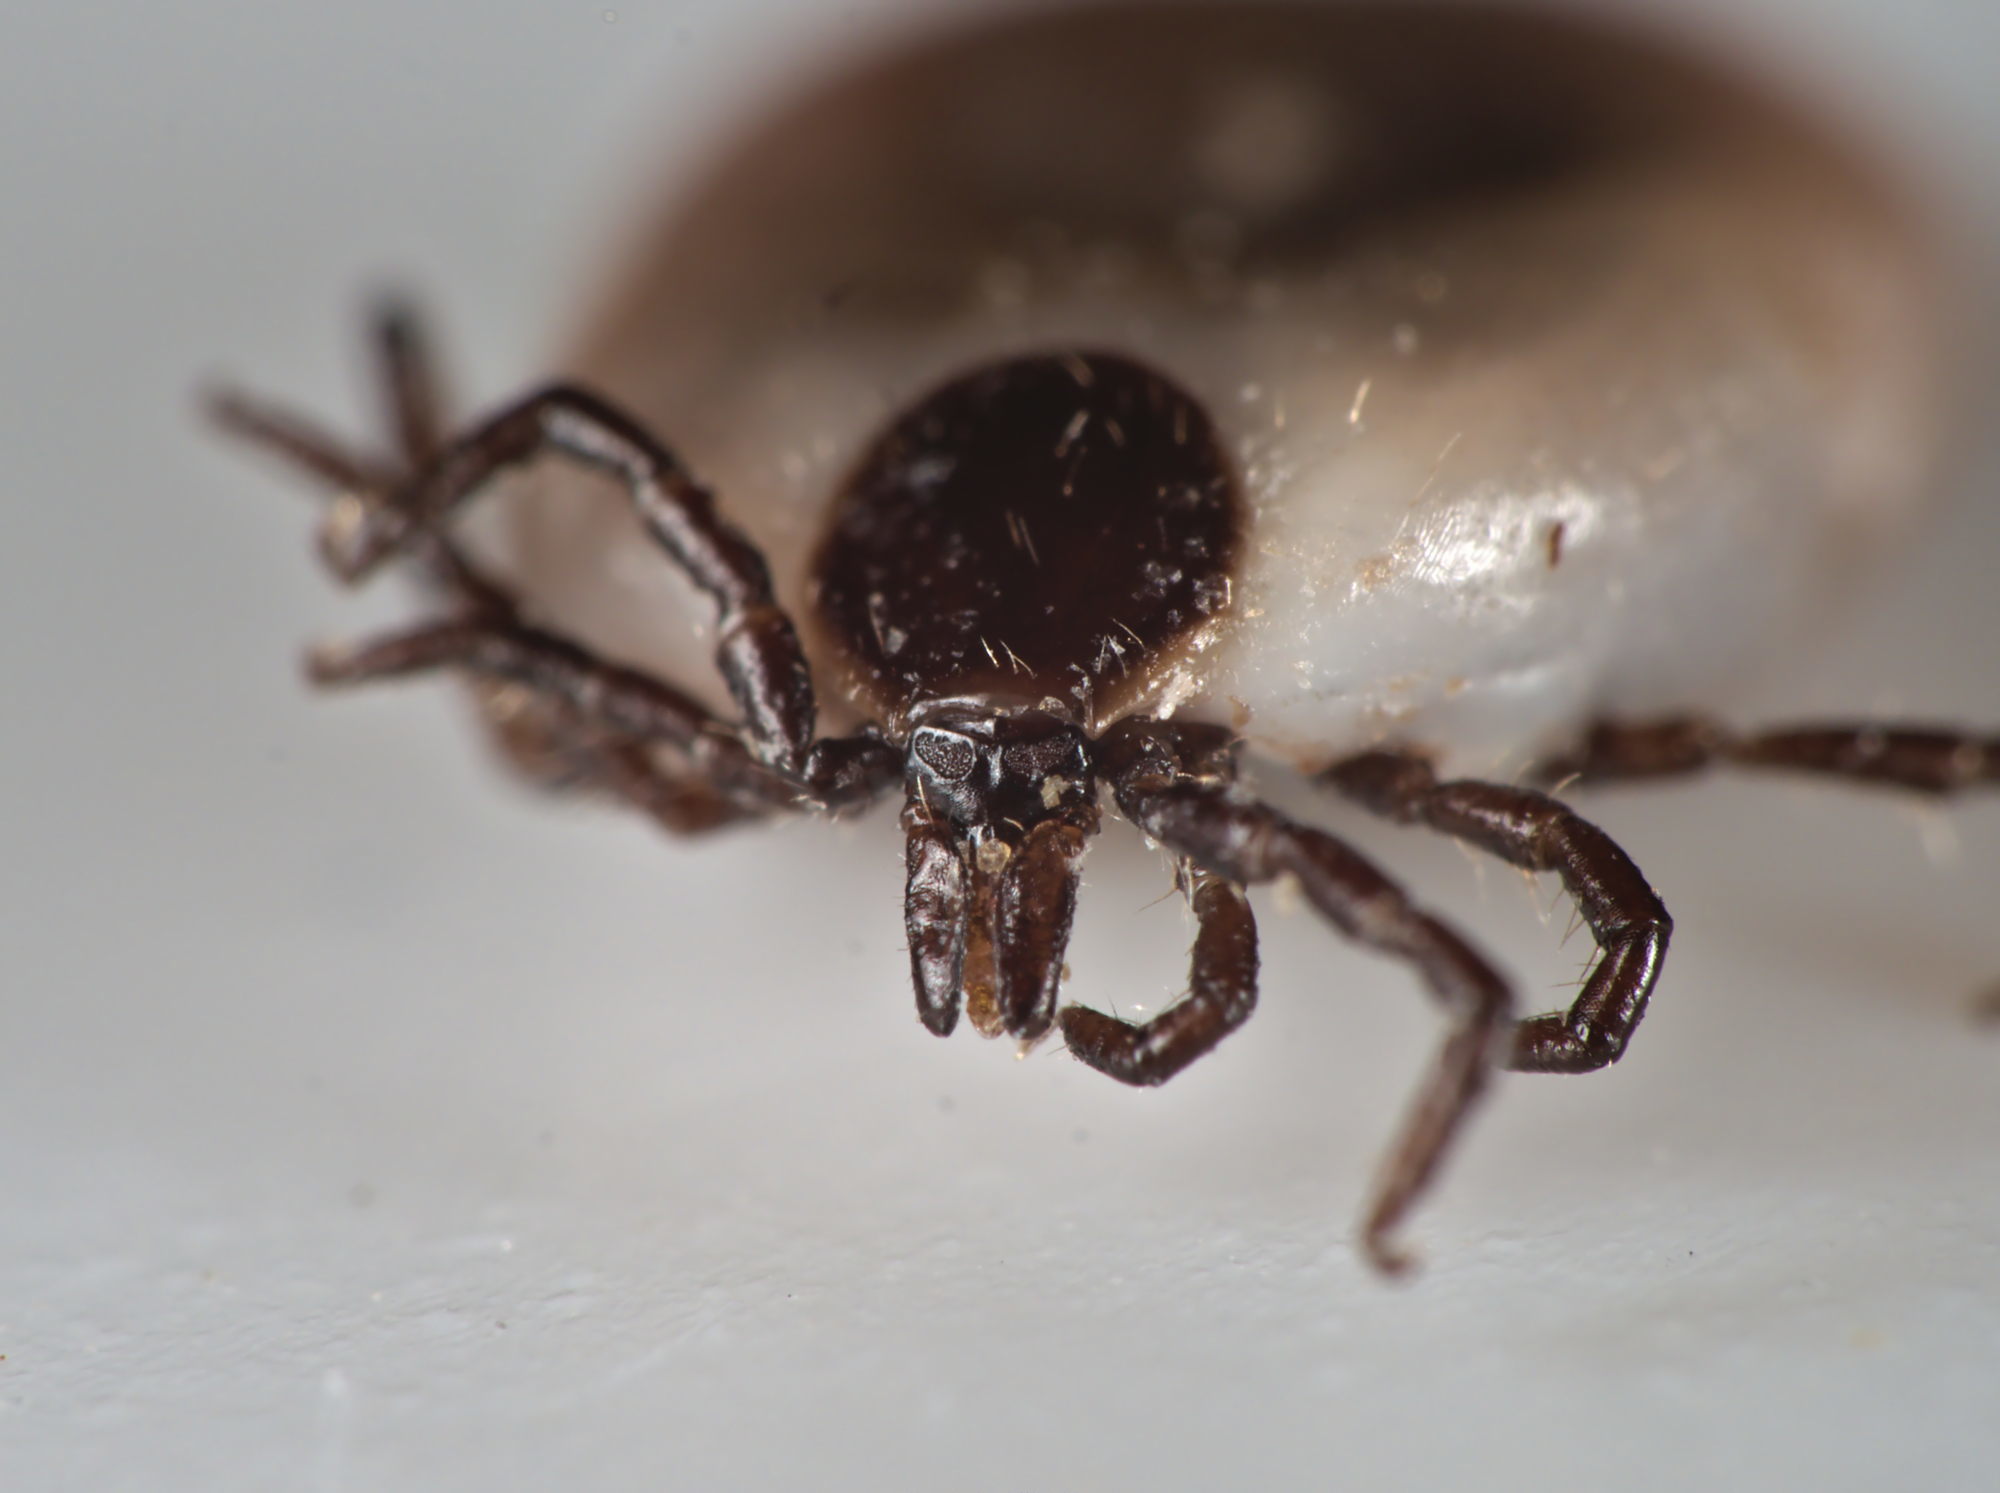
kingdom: Animalia
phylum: Arthropoda
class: Arachnida
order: Ixodida
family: Ixodidae
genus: Ixodes
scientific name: Ixodes ricinus
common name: Castor bean tick
